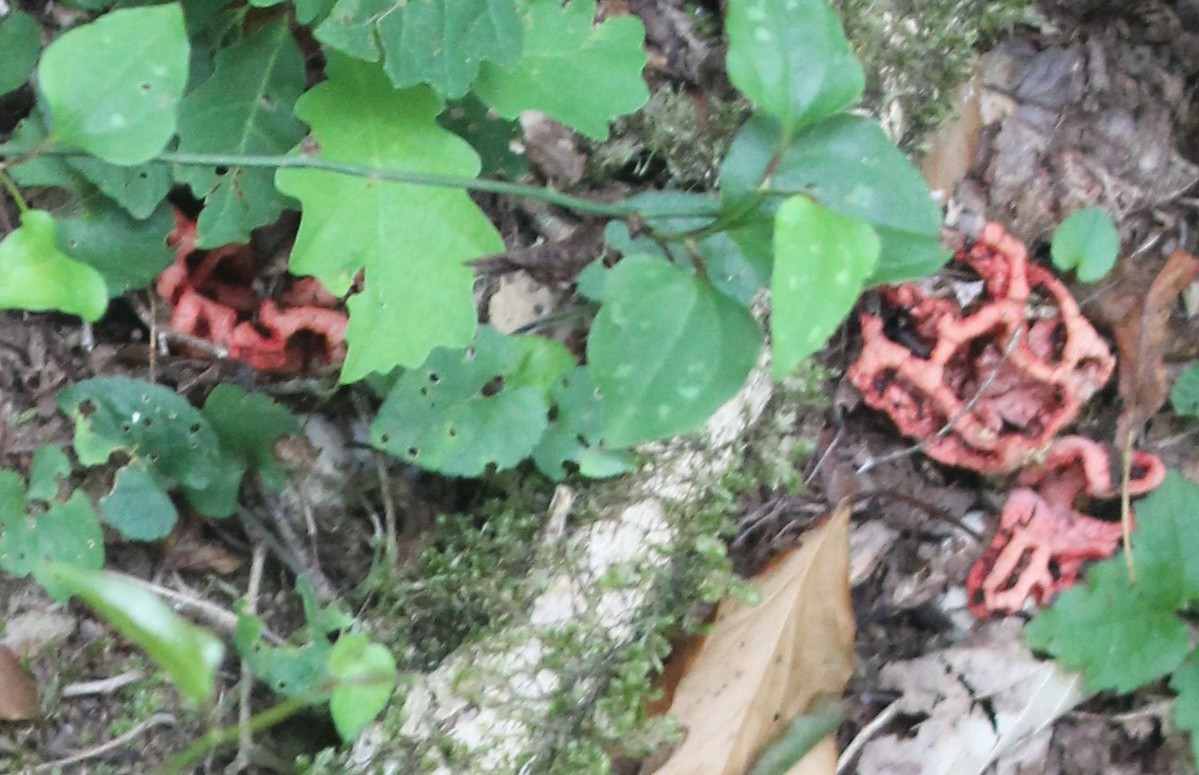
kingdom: Fungi
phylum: Basidiomycota
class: Agaricomycetes
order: Phallales
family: Phallaceae
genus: Clathrus
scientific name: Clathrus ruber
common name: Red cage
